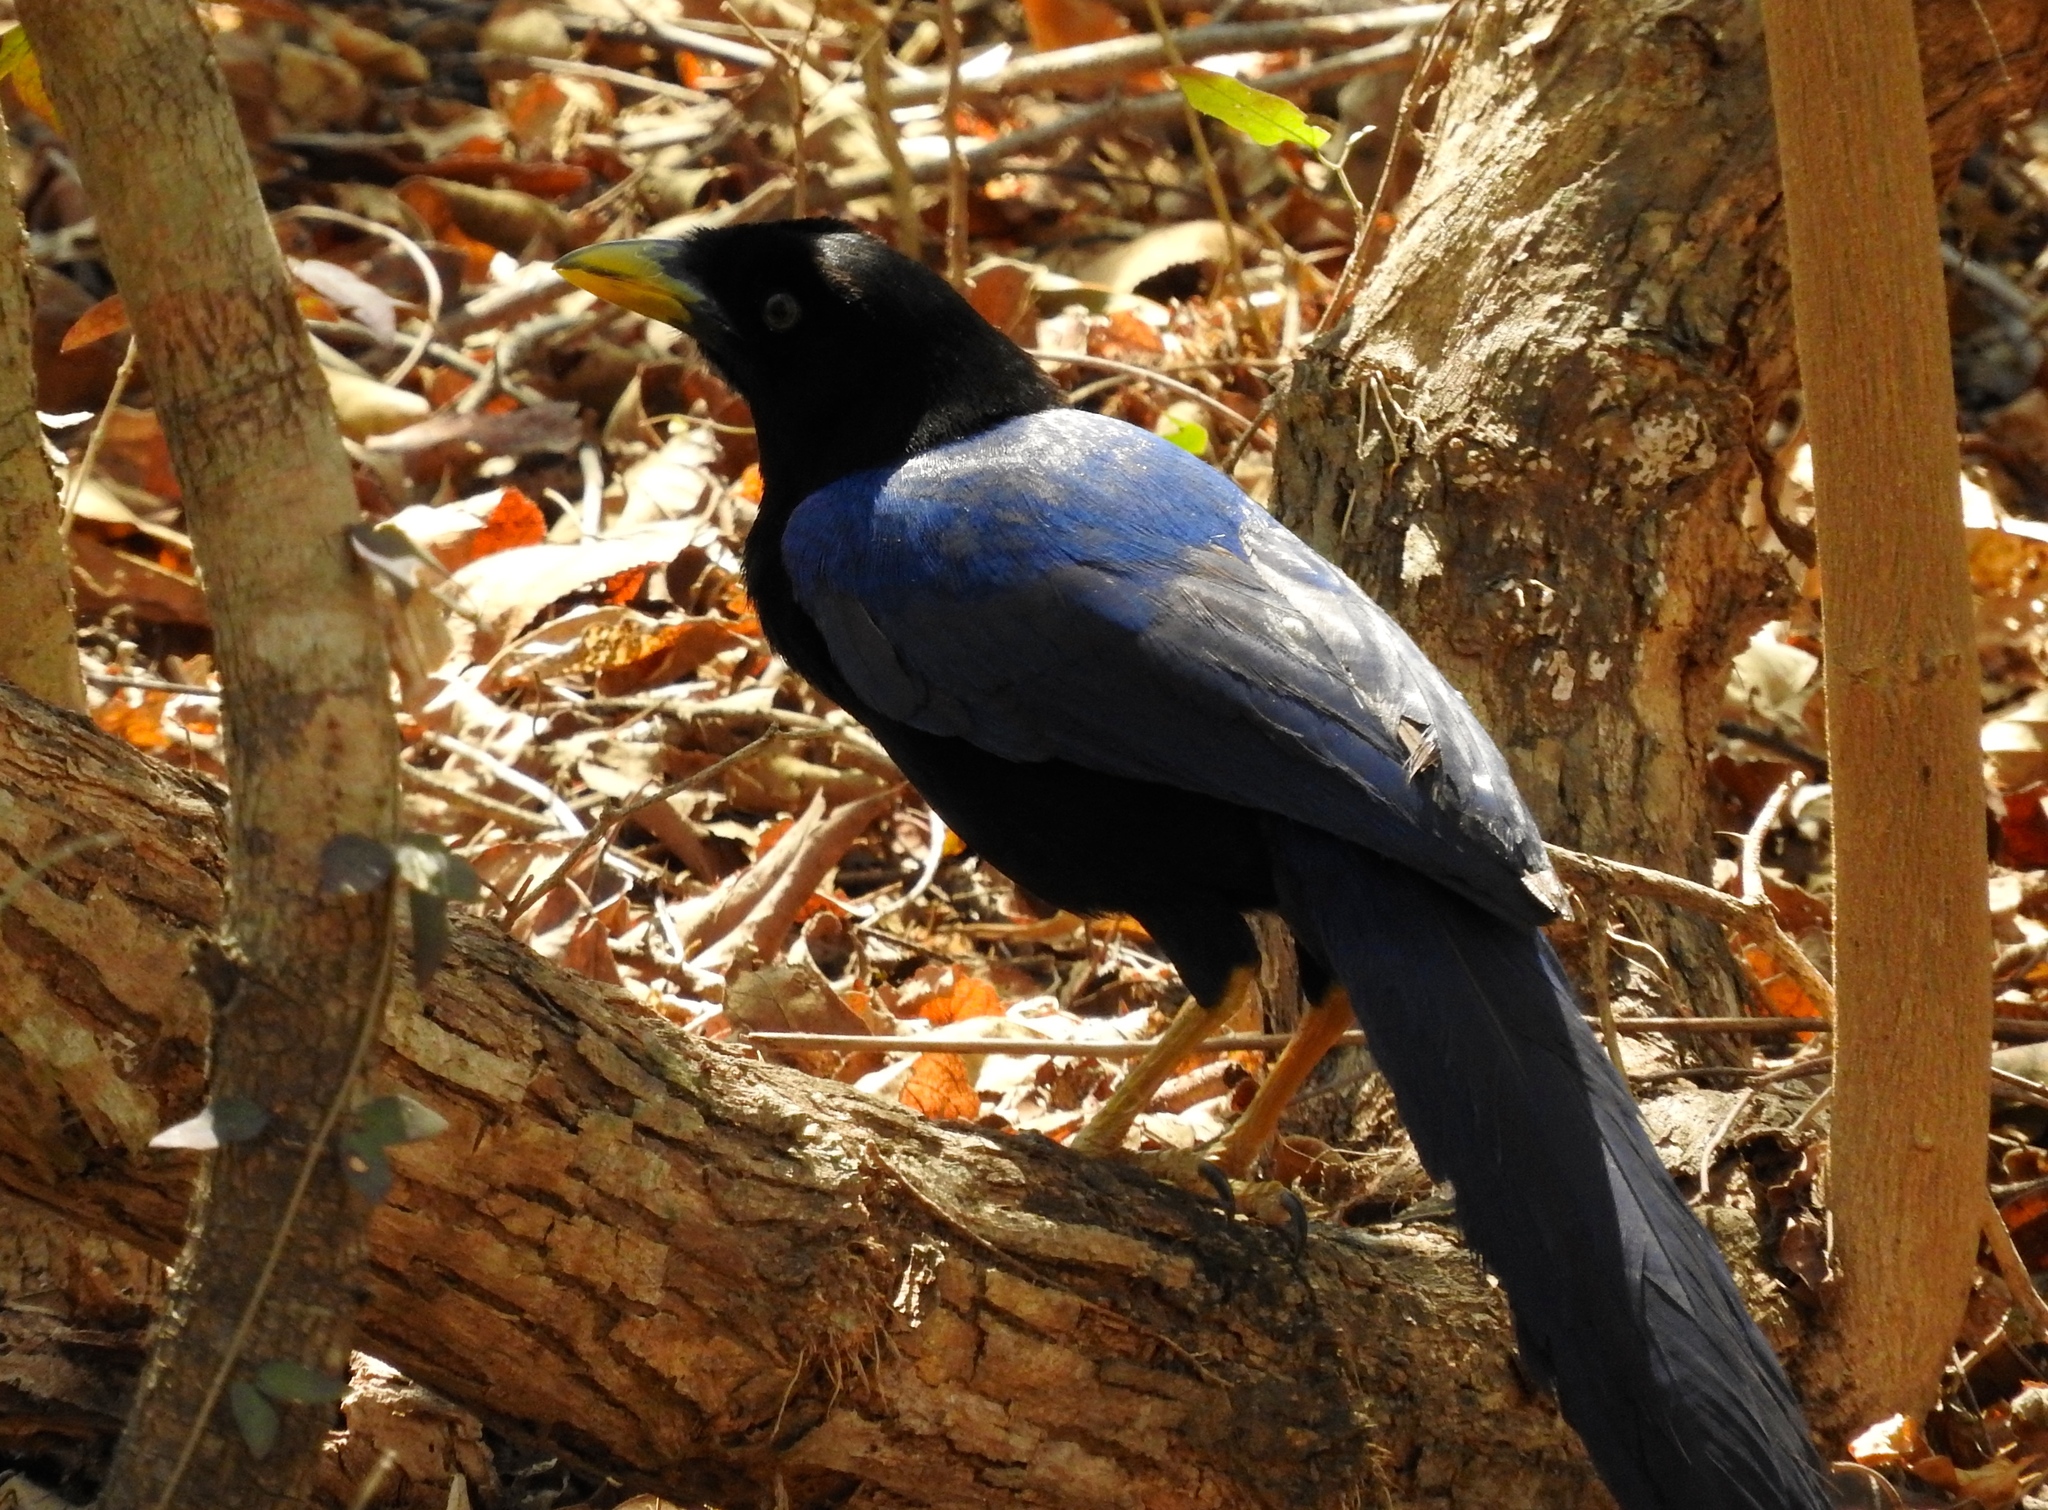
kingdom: Animalia
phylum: Chordata
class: Aves
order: Passeriformes
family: Corvidae
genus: Cyanocorax
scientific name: Cyanocorax beecheii
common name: Purplish-backed jay
